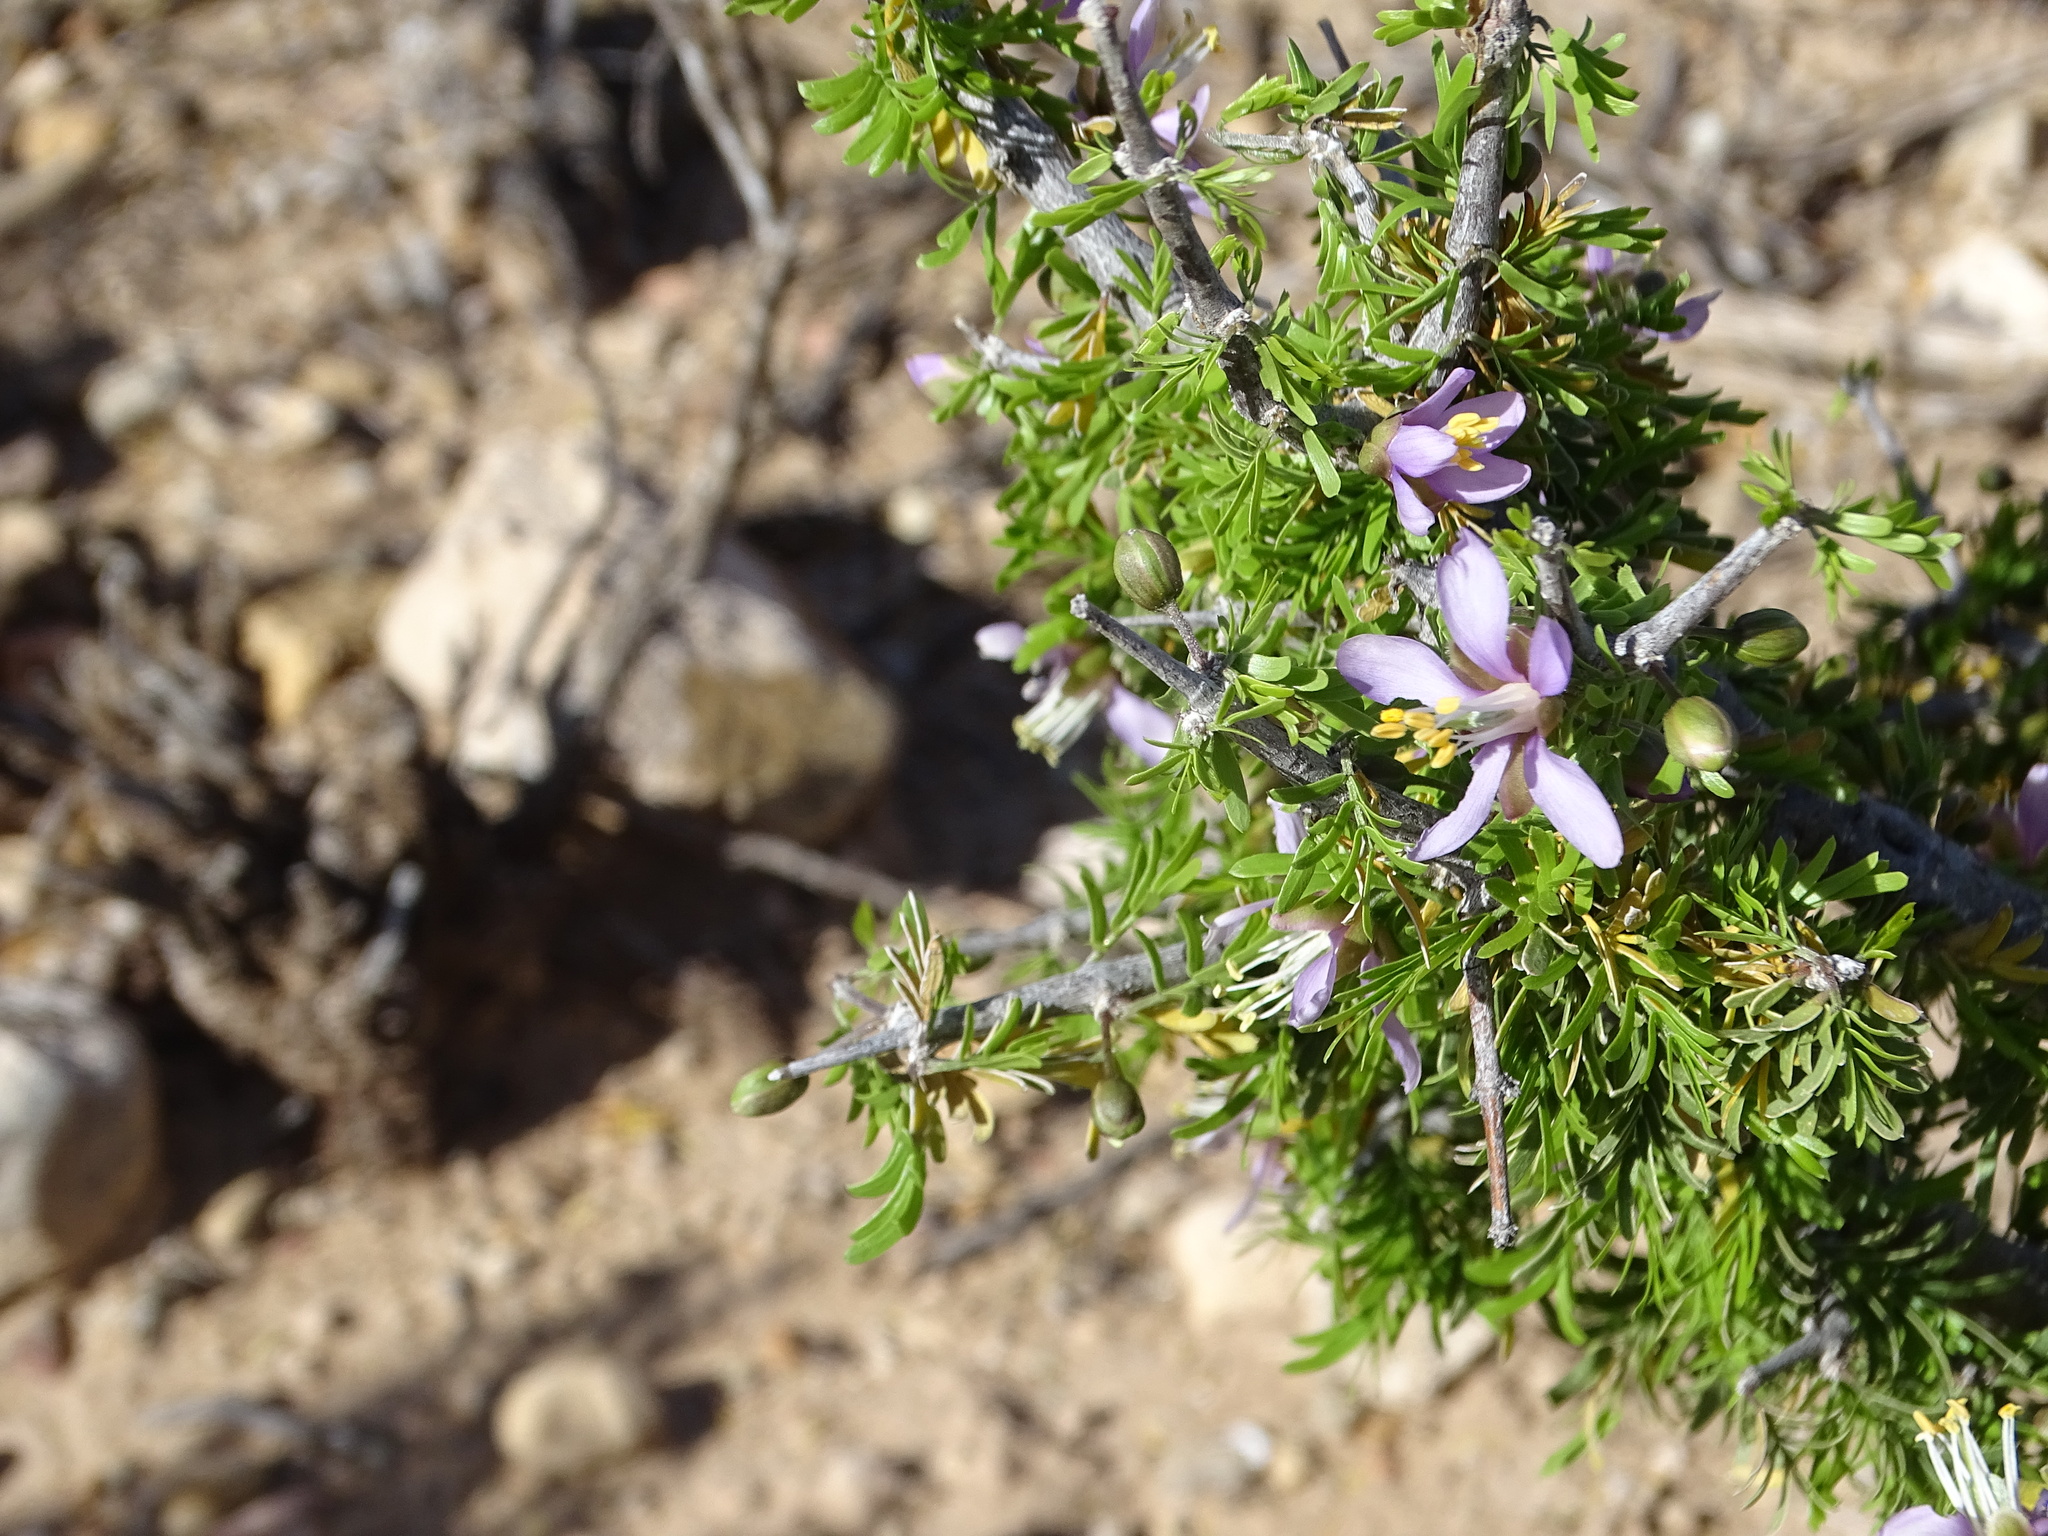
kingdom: Plantae
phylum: Tracheophyta
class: Magnoliopsida
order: Zygophyllales
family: Zygophyllaceae
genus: Porlieria
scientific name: Porlieria angustifolia
